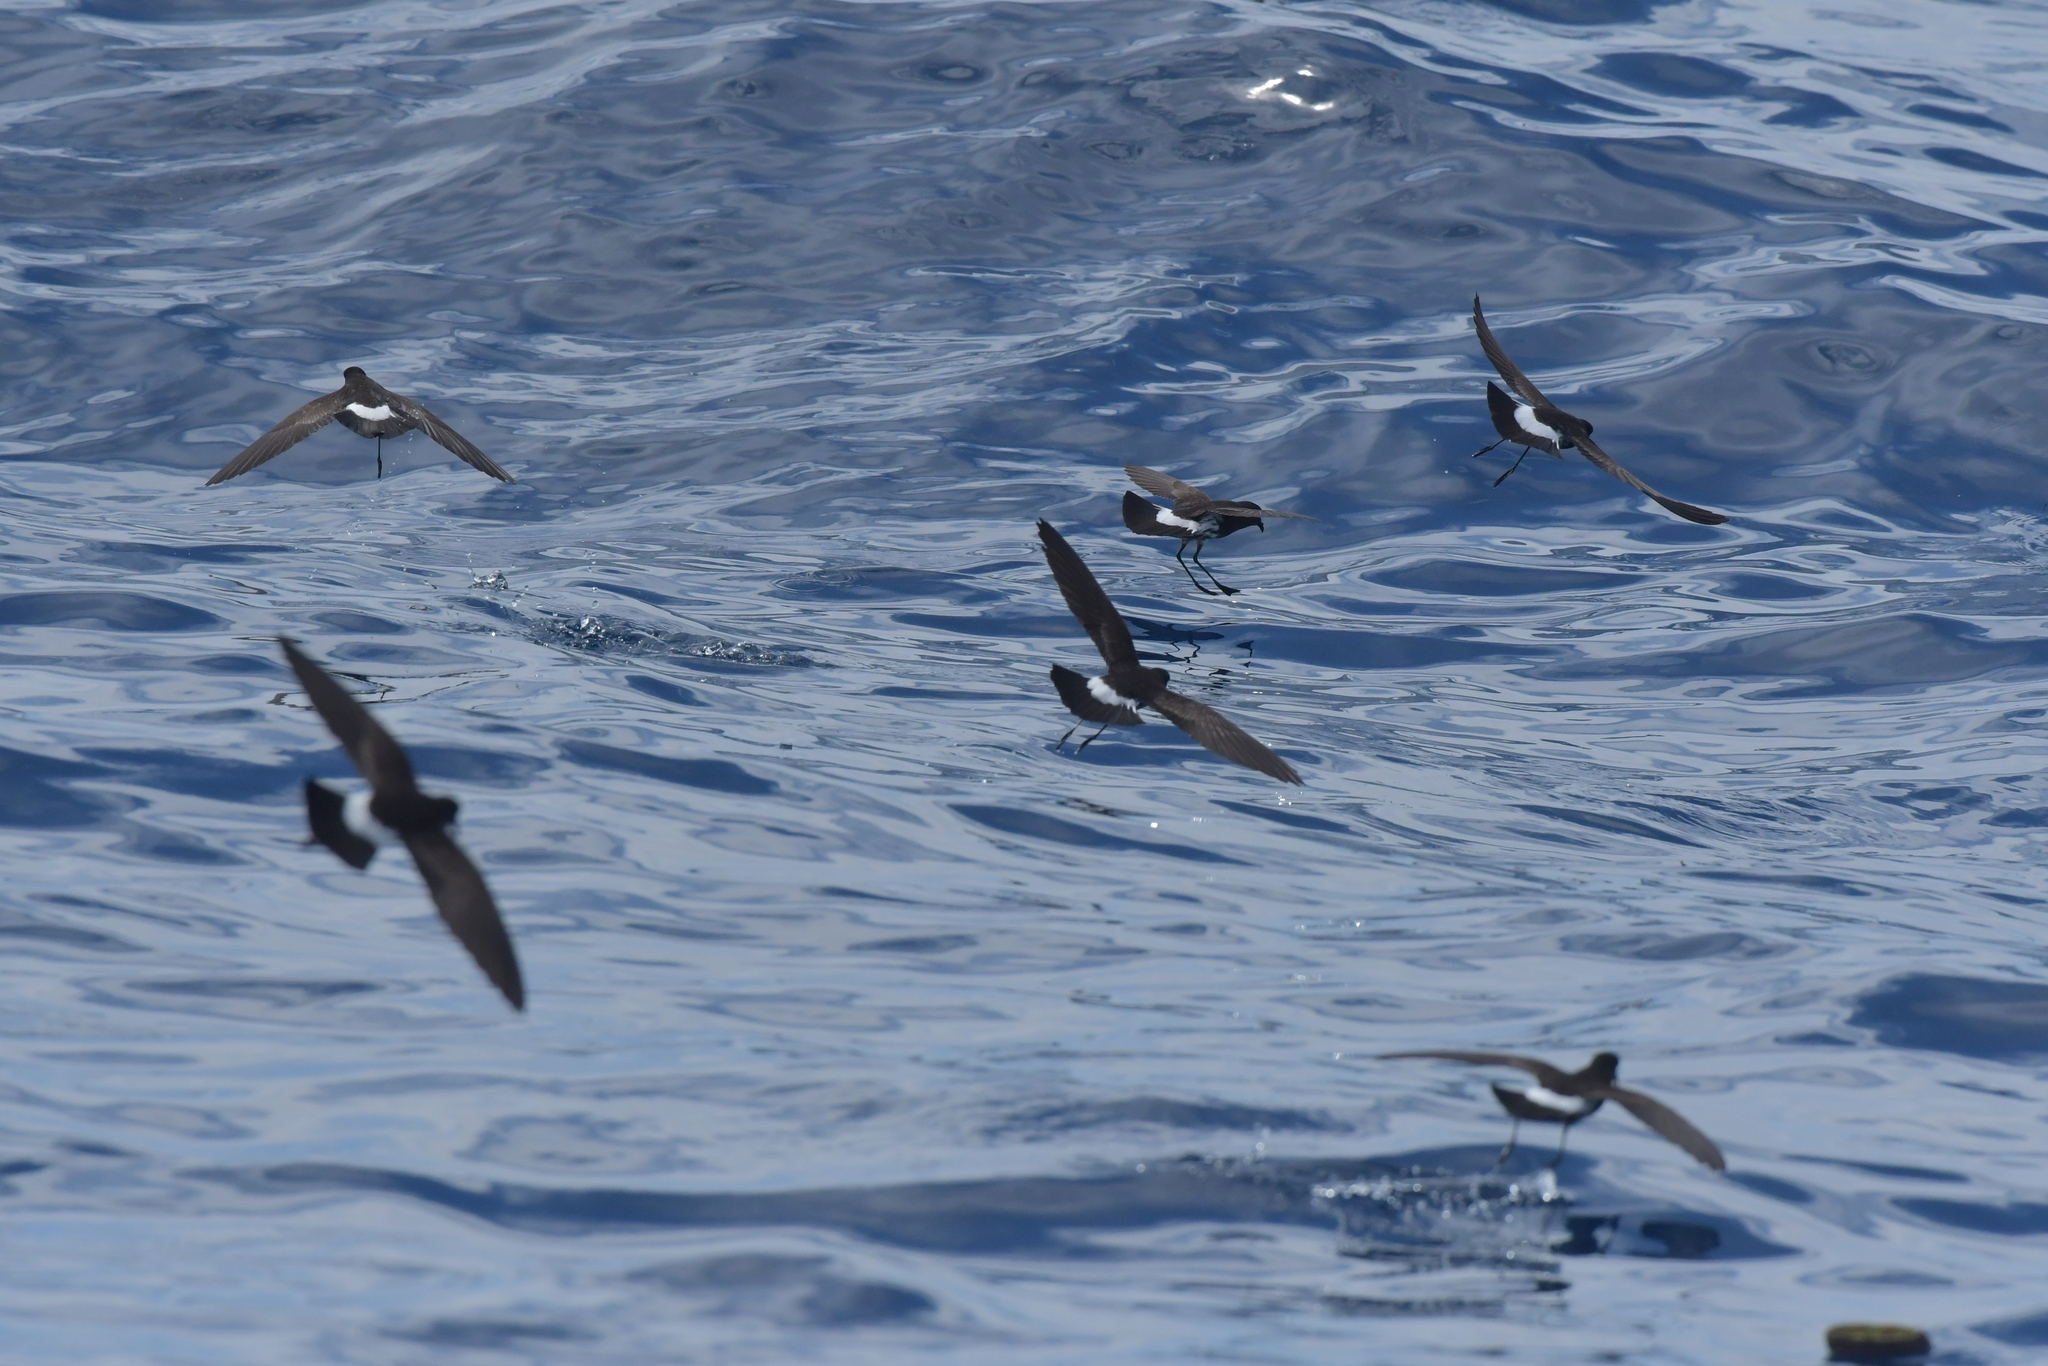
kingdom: Animalia
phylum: Chordata
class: Aves
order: Procellariiformes
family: Hydrobatidae
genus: Oceanites
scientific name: Oceanites maorianus
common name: New zealand storm petrel
